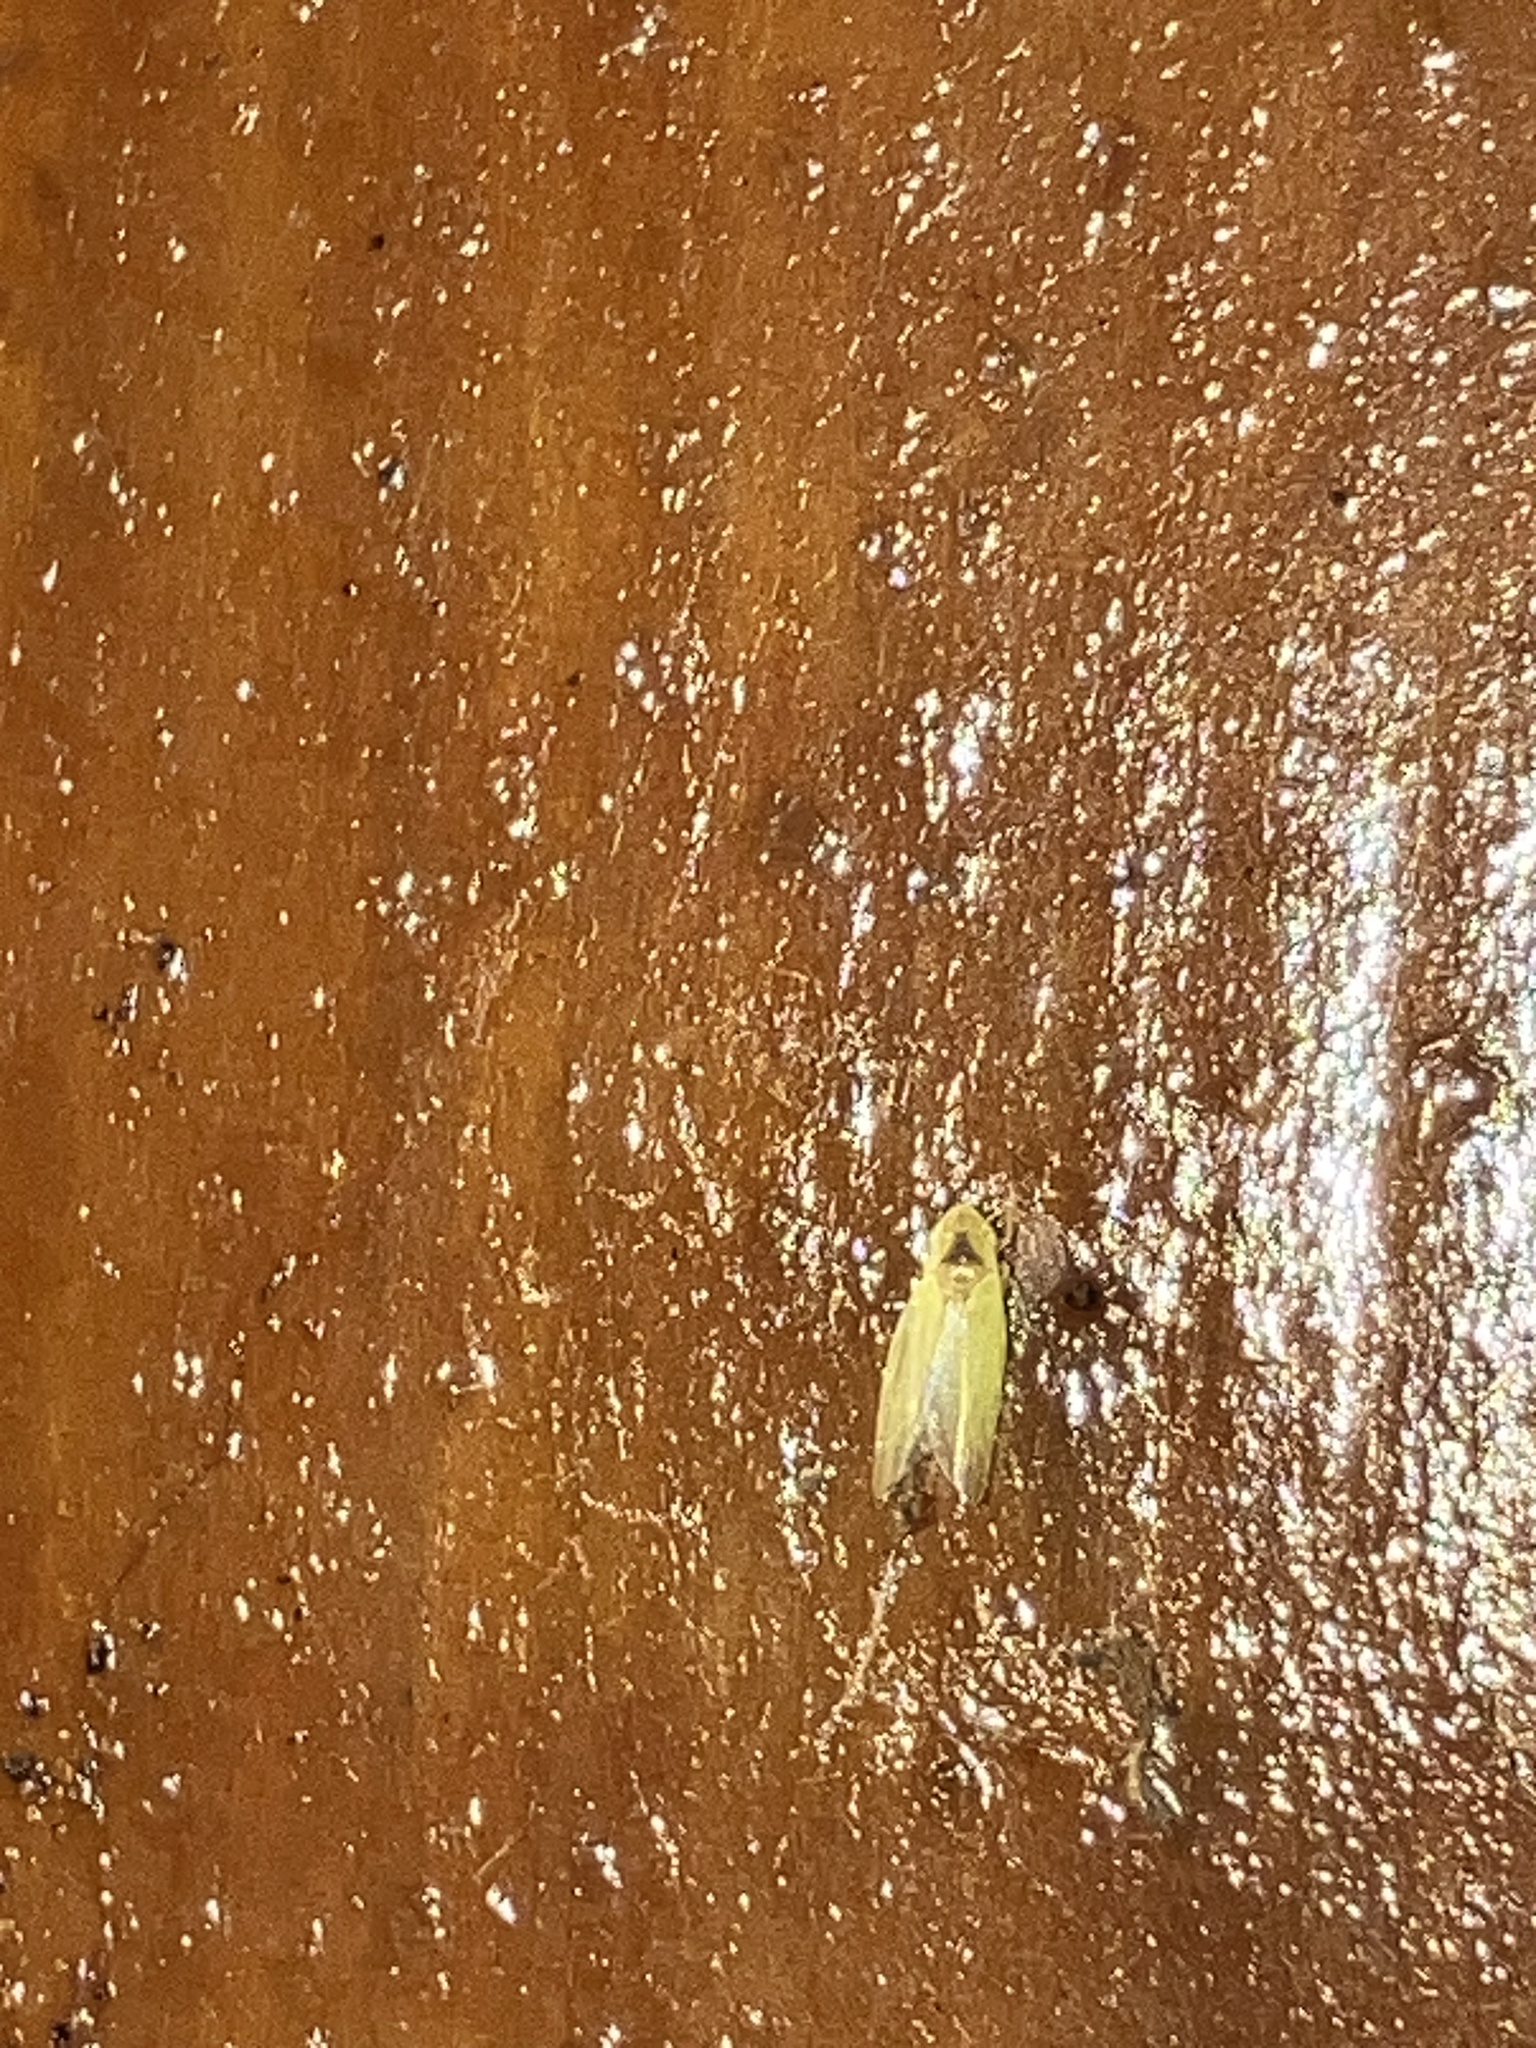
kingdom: Animalia
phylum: Arthropoda
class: Insecta
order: Hemiptera
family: Cicadellidae
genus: Erythridula
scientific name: Erythridula
